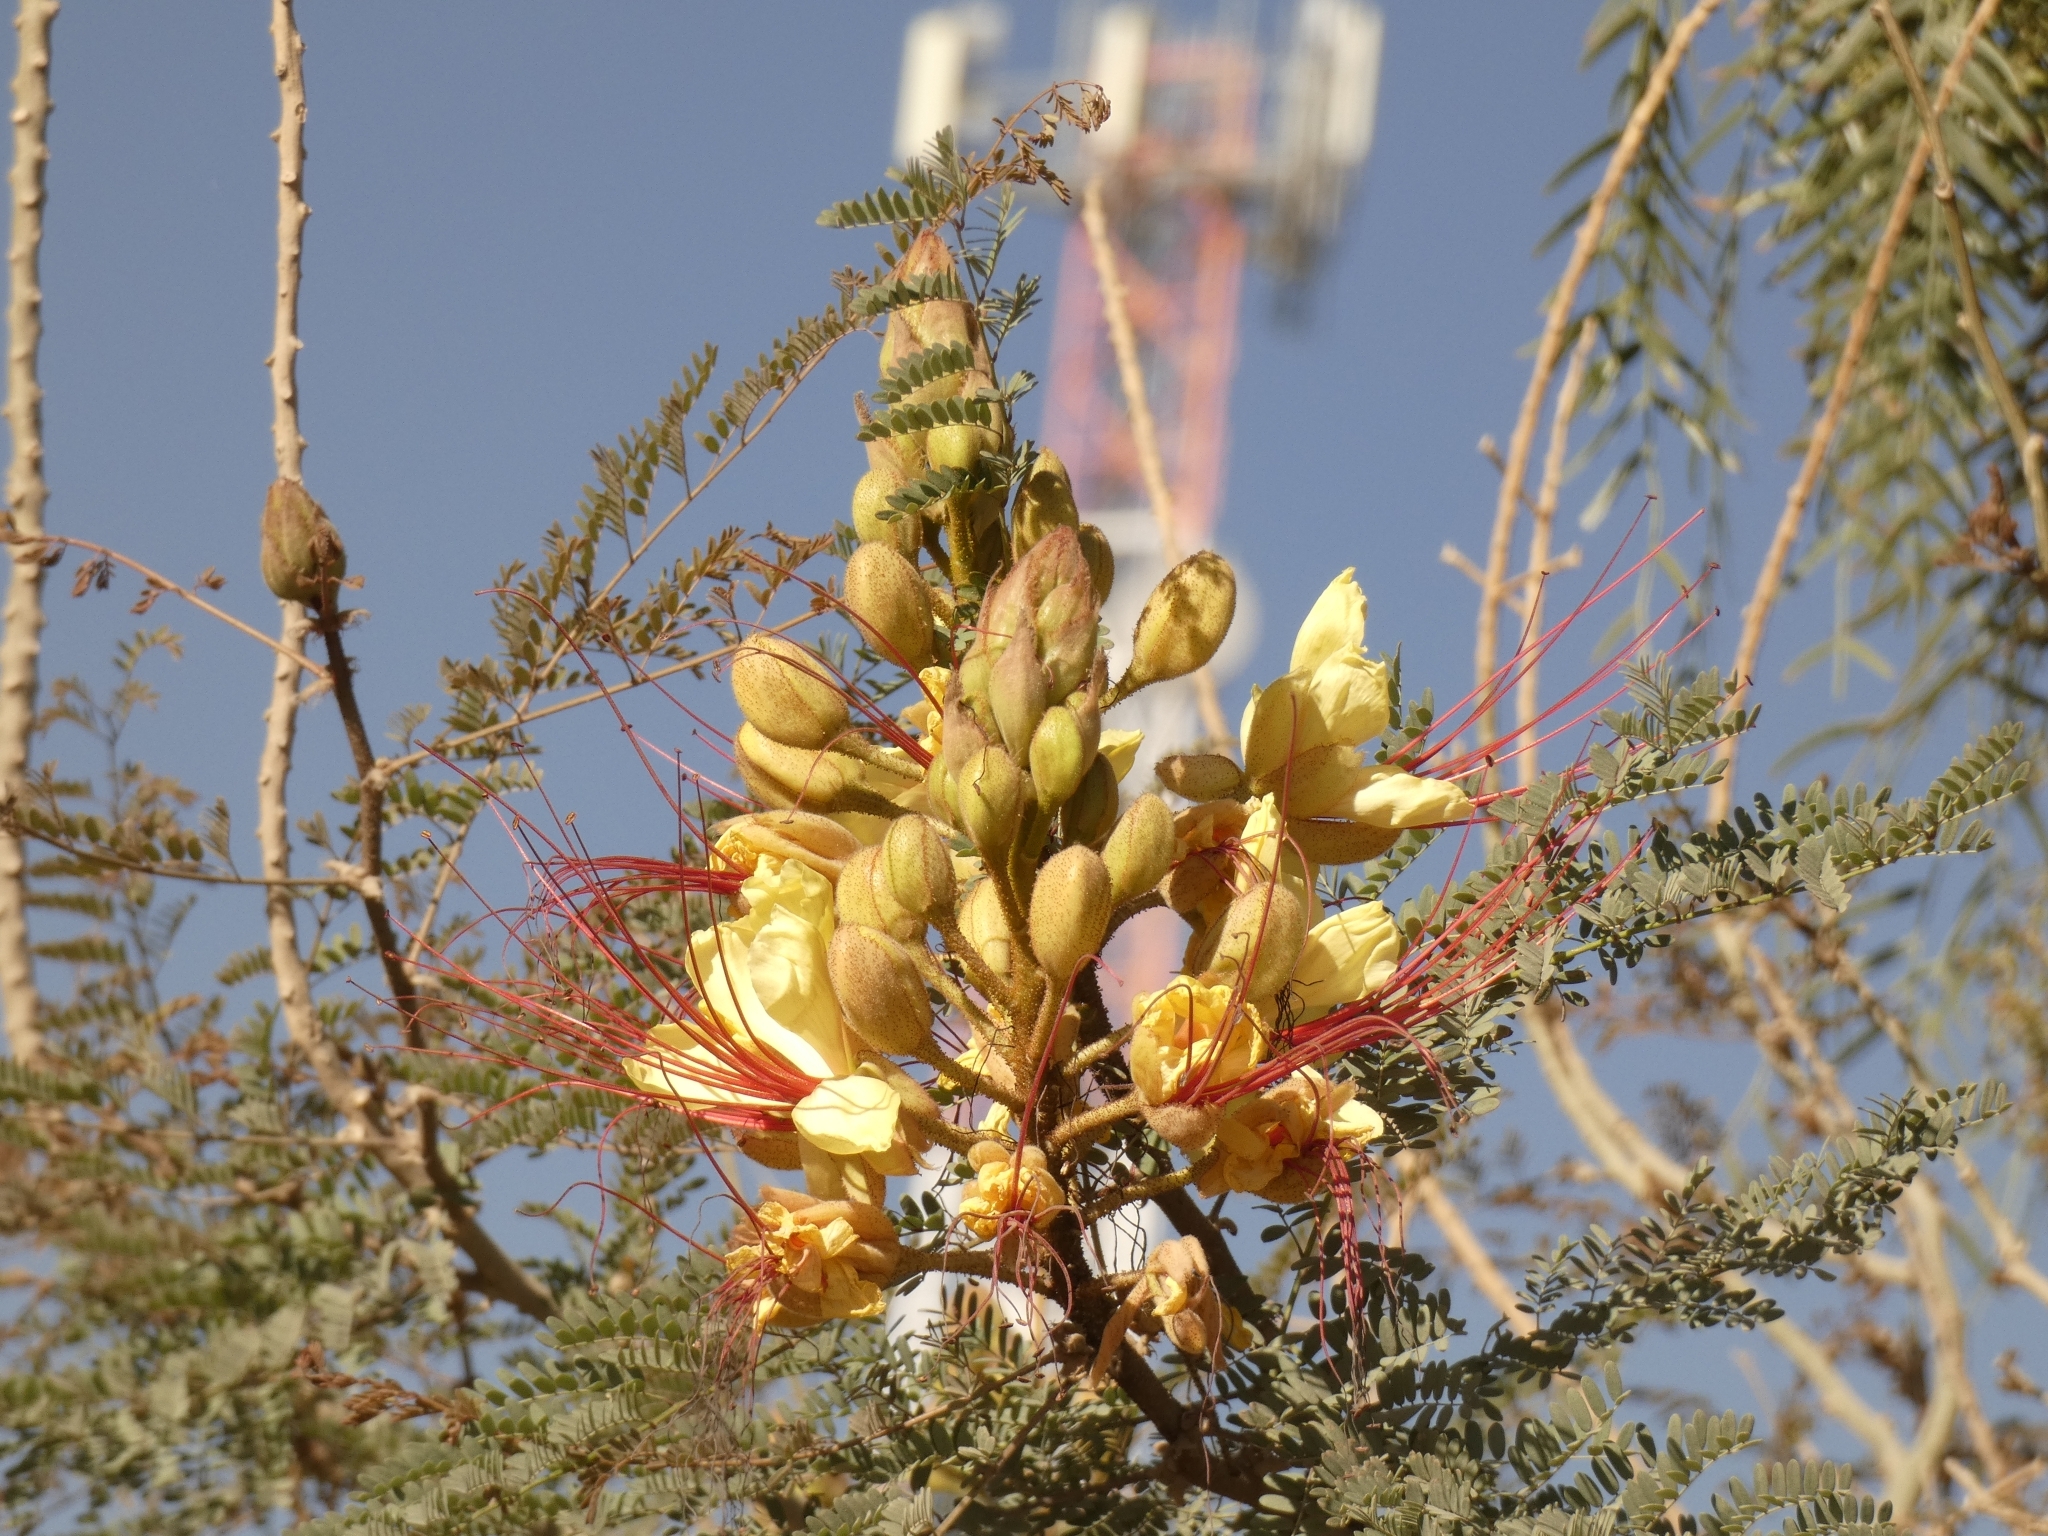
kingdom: Plantae
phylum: Tracheophyta
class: Magnoliopsida
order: Fabales
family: Fabaceae
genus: Erythrostemon
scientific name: Erythrostemon gilliesii
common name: Bird-of-paradise shrub
